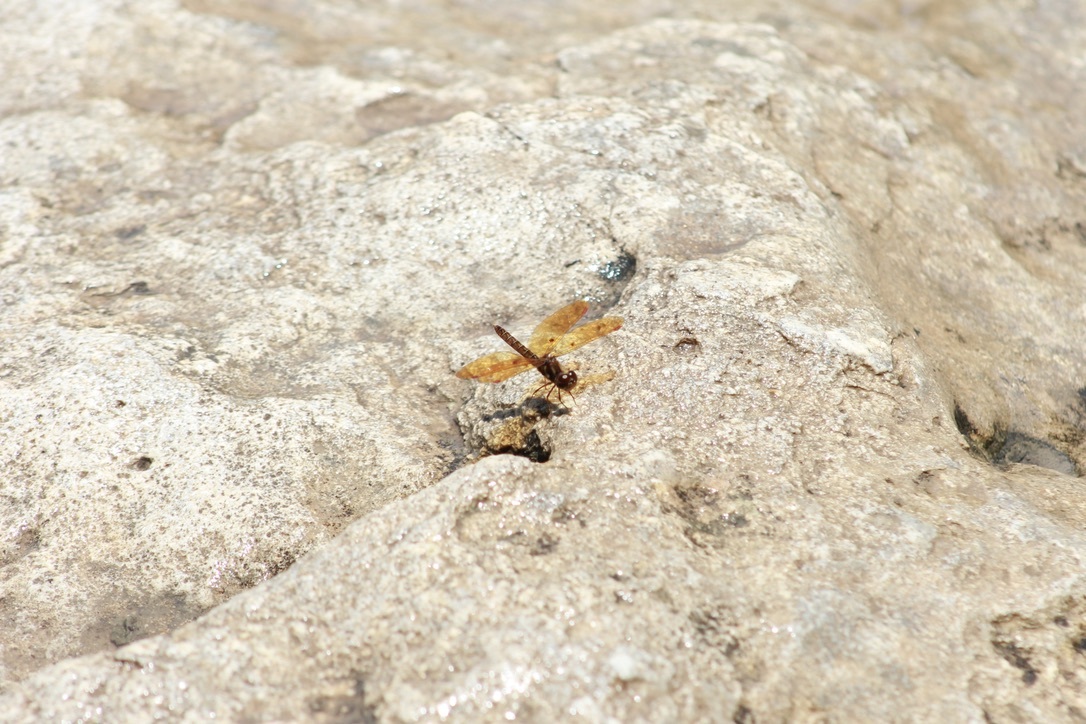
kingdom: Animalia
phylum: Arthropoda
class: Insecta
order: Odonata
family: Libellulidae
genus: Perithemis
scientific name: Perithemis tenera
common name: Eastern amberwing
